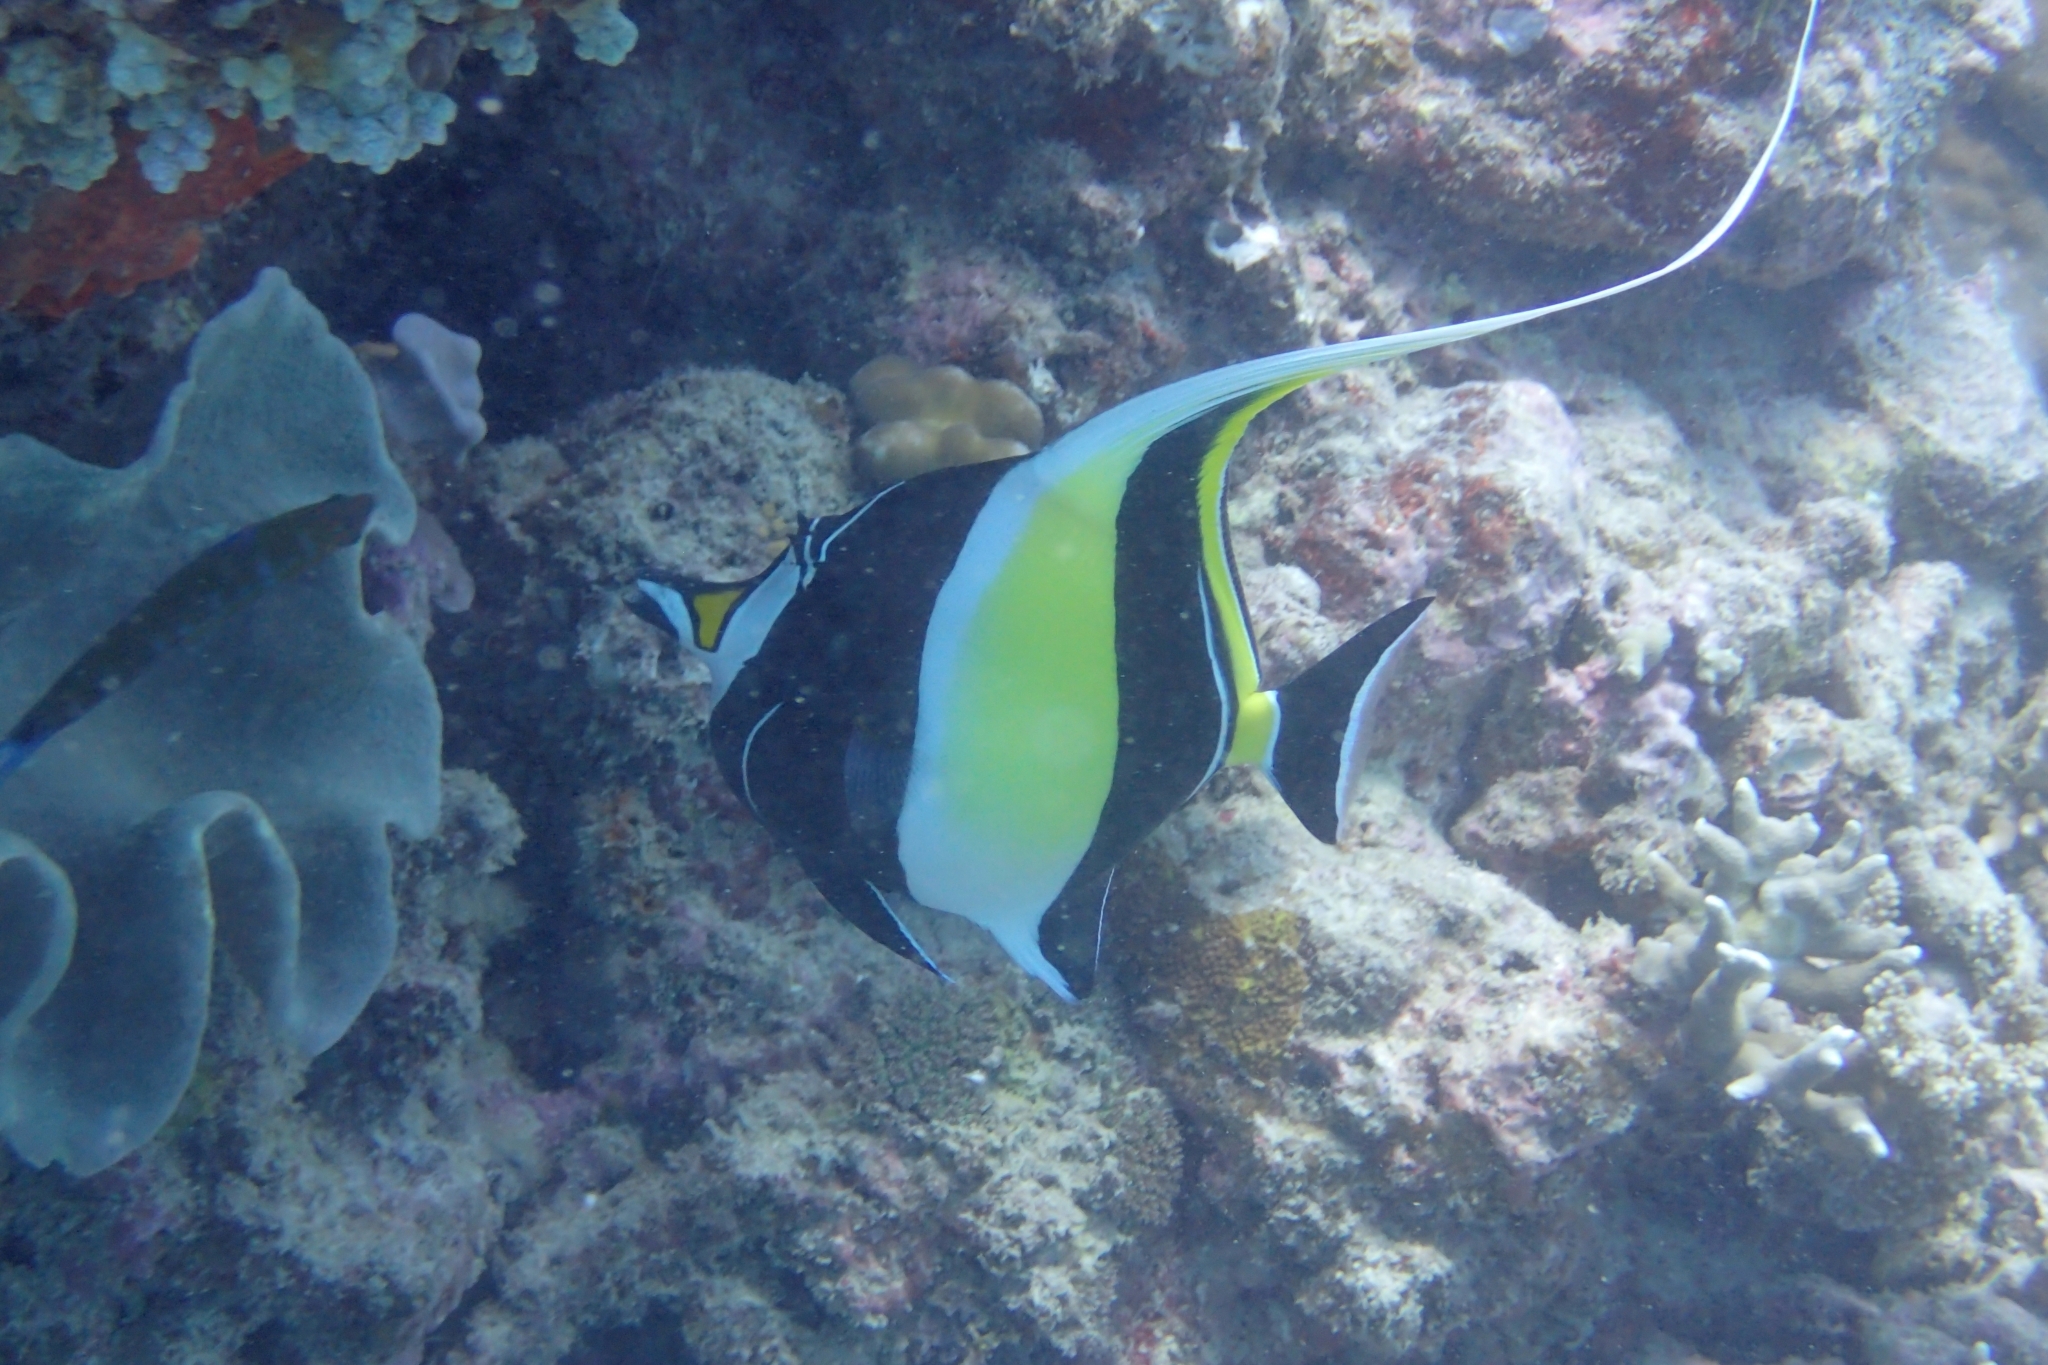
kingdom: Animalia
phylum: Chordata
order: Perciformes
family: Zanclidae
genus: Zanclus
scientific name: Zanclus cornutus
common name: Moorish idol
